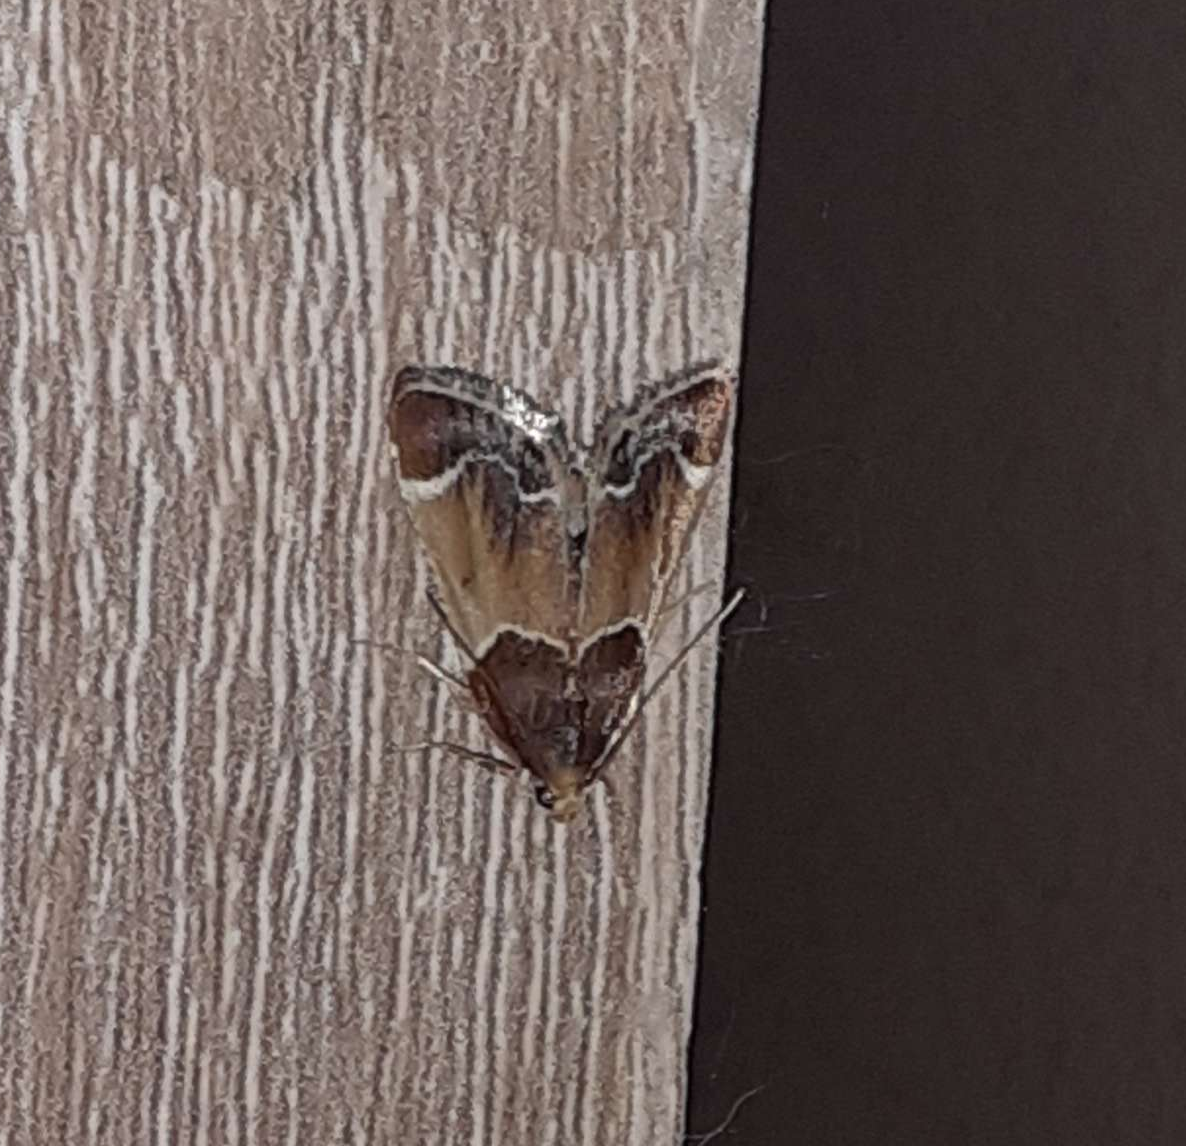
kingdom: Animalia
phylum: Arthropoda
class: Insecta
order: Lepidoptera
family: Pyralidae
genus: Pyralis
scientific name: Pyralis farinalis
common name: Meal moth
